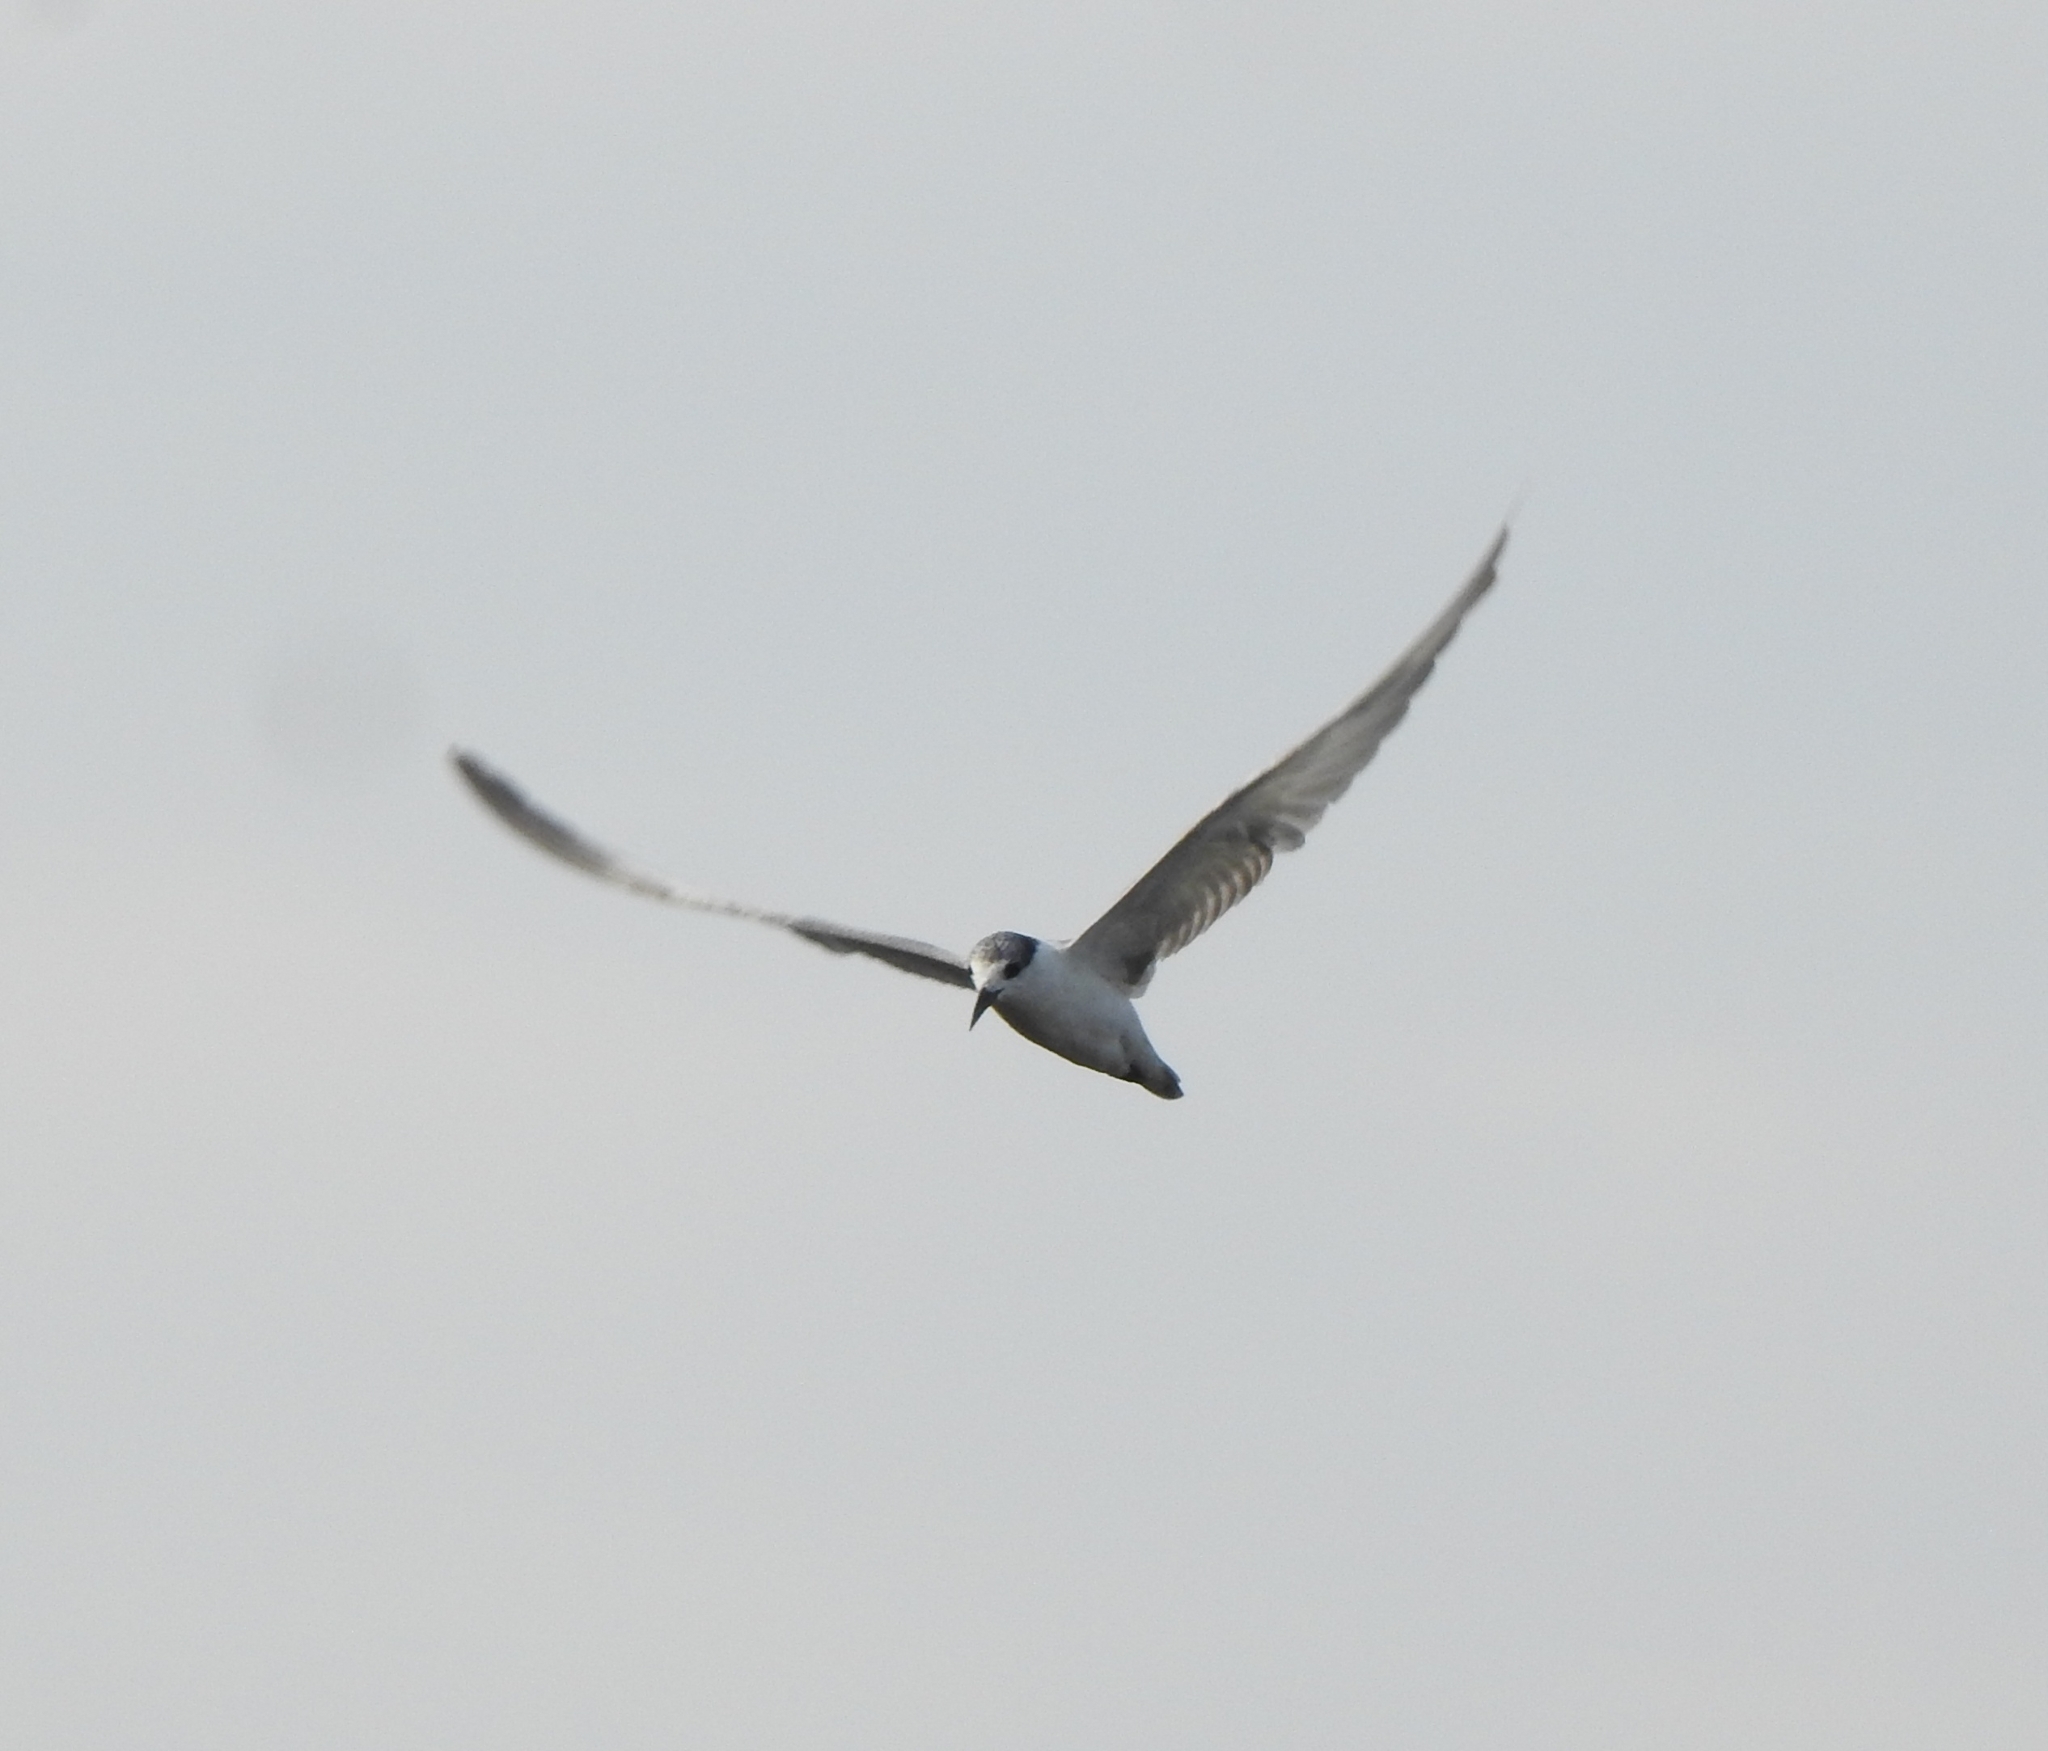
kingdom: Animalia
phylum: Chordata
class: Aves
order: Charadriiformes
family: Laridae
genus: Chlidonias
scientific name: Chlidonias hybrida
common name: Whiskered tern
